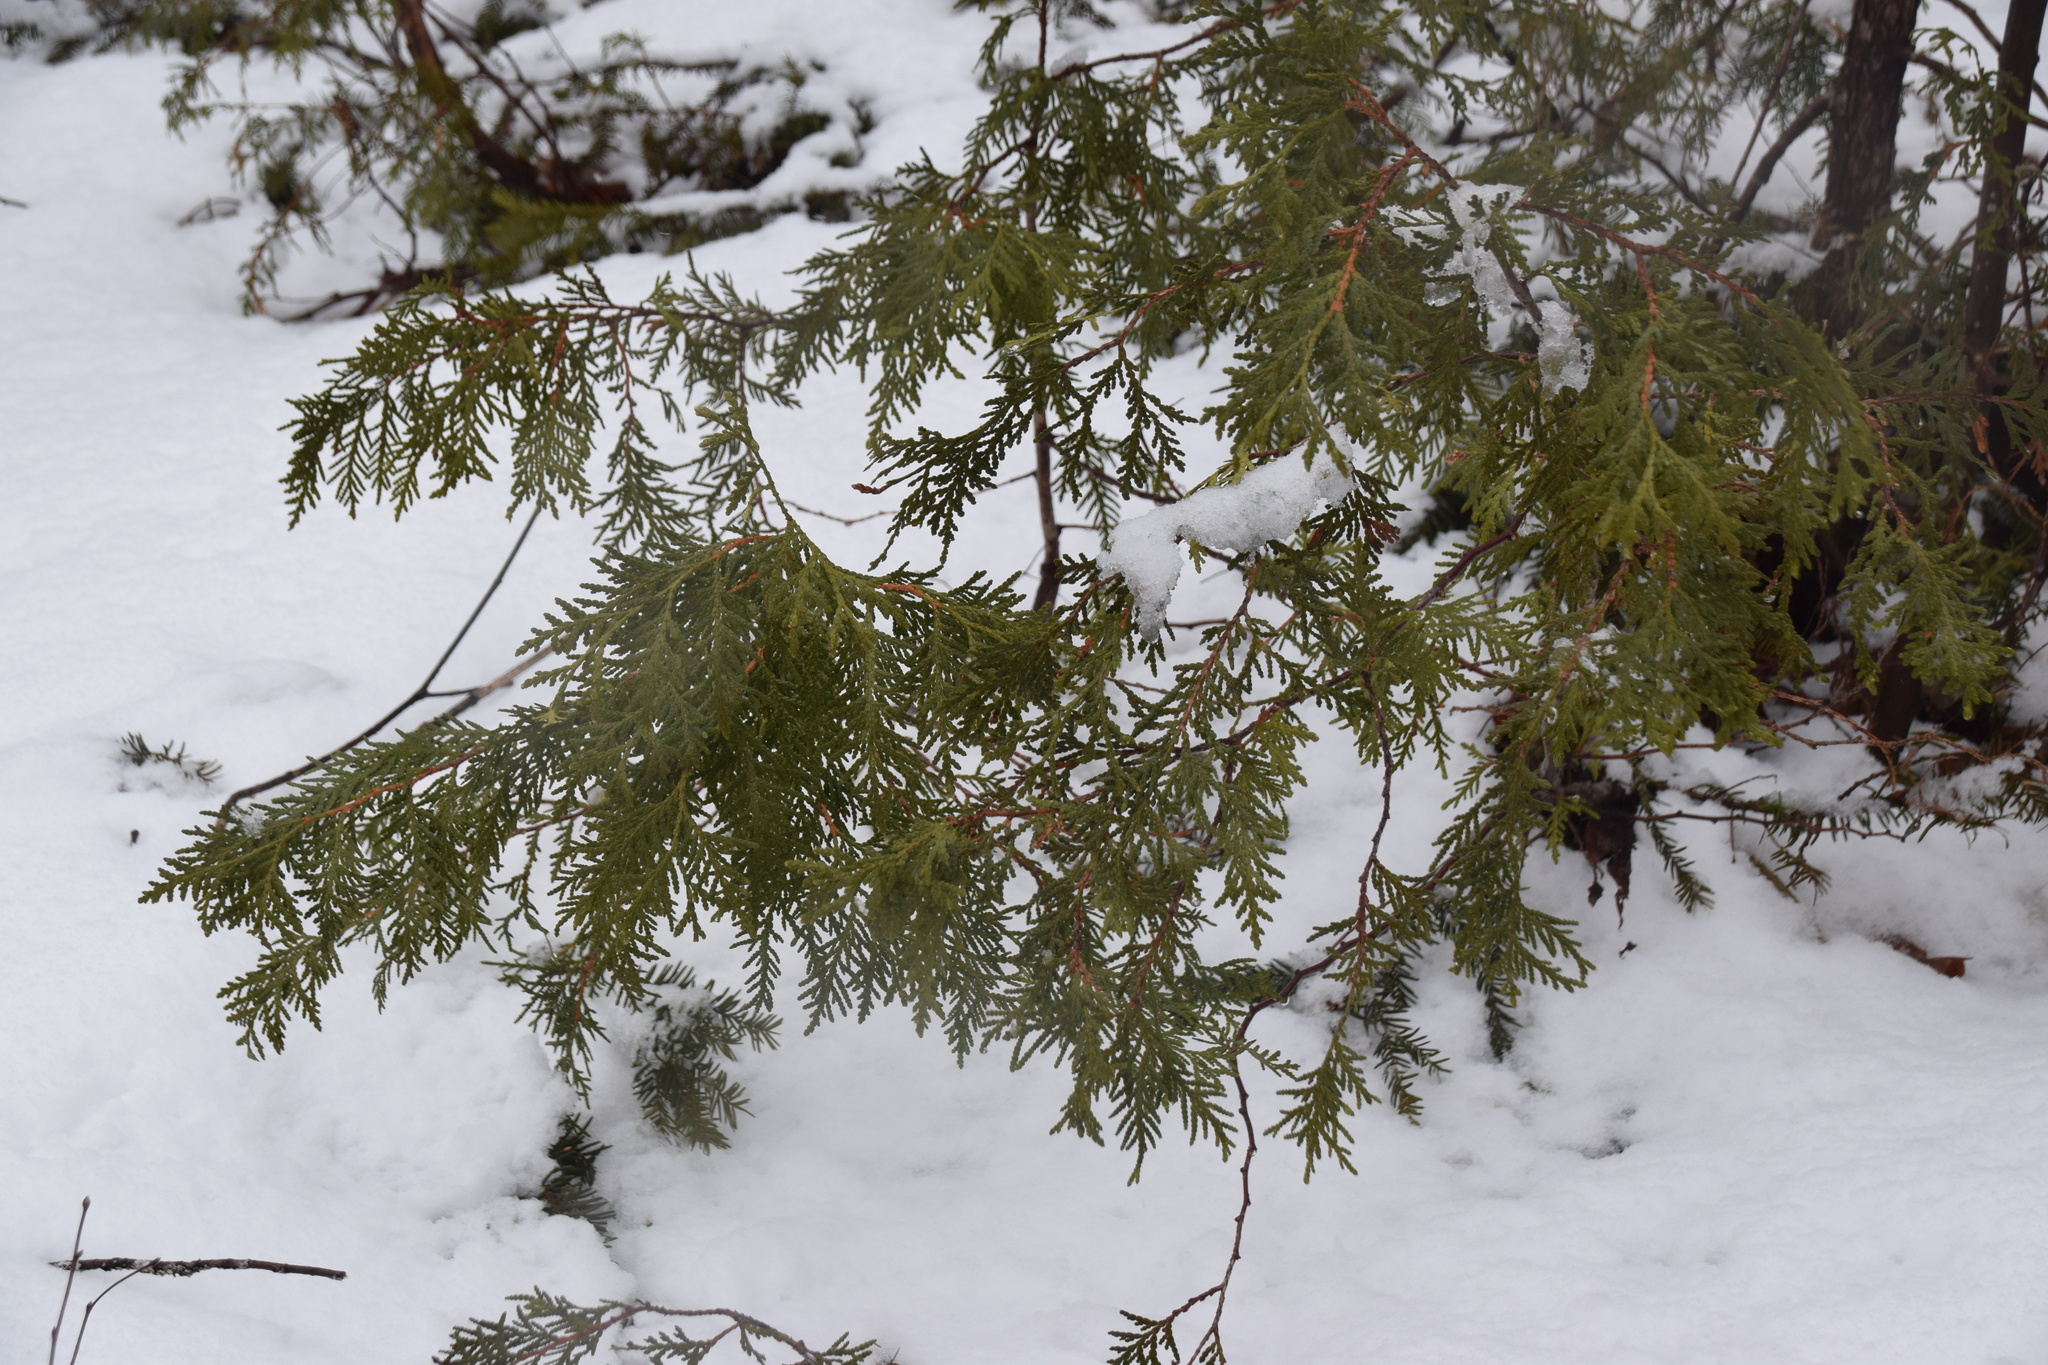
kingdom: Plantae
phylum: Tracheophyta
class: Pinopsida
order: Pinales
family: Cupressaceae
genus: Thuja
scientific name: Thuja occidentalis
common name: Northern white-cedar
